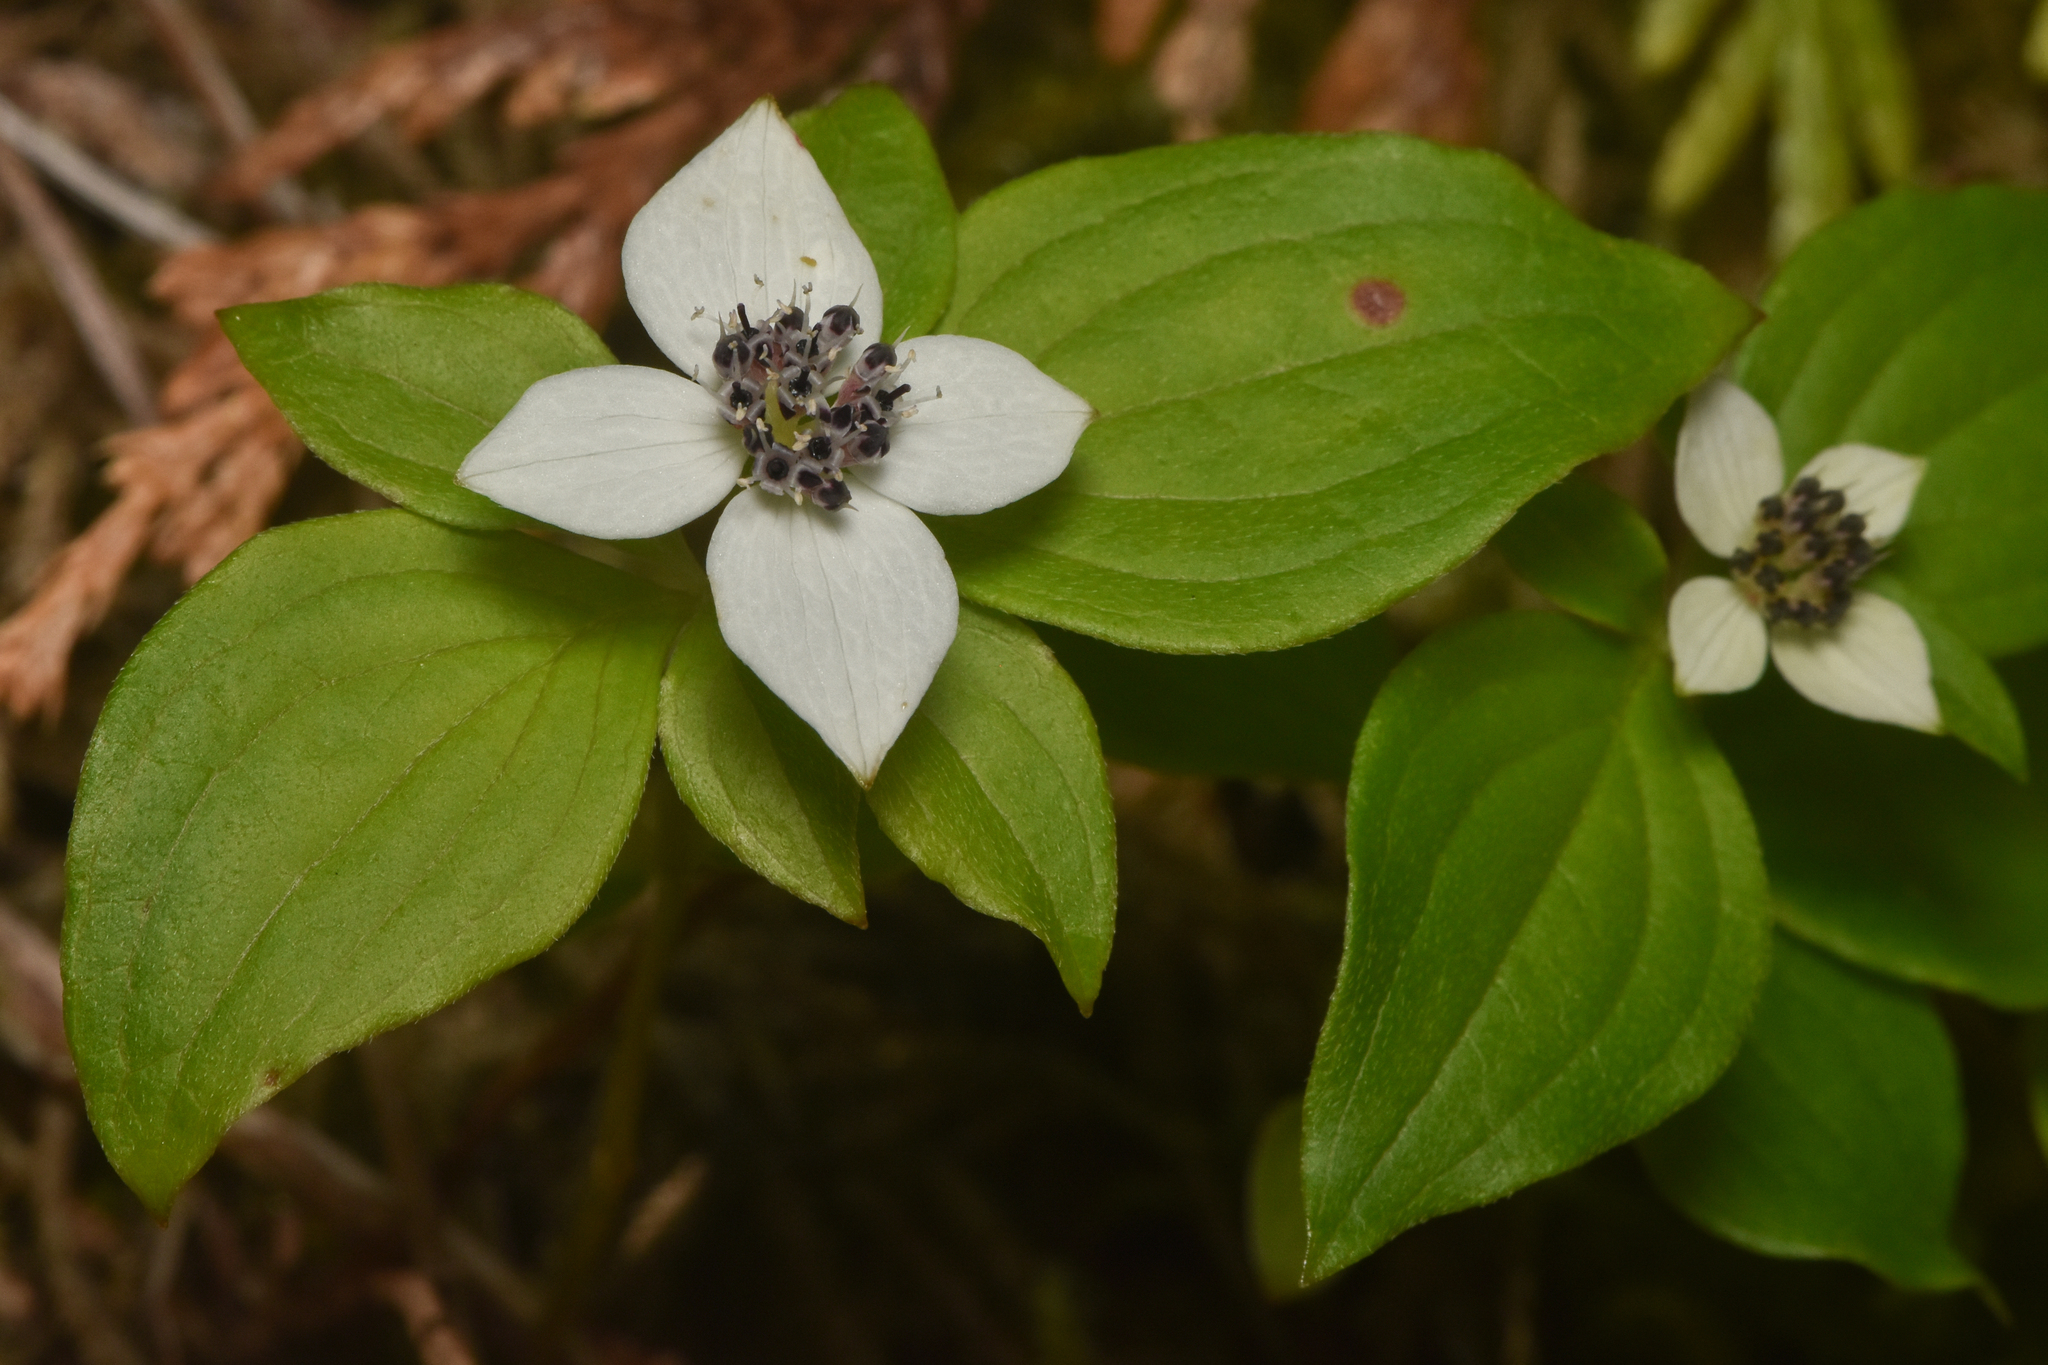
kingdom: Plantae
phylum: Tracheophyta
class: Magnoliopsida
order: Cornales
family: Cornaceae
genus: Cornus
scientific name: Cornus unalaschkensis
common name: Alaska bunchberry
